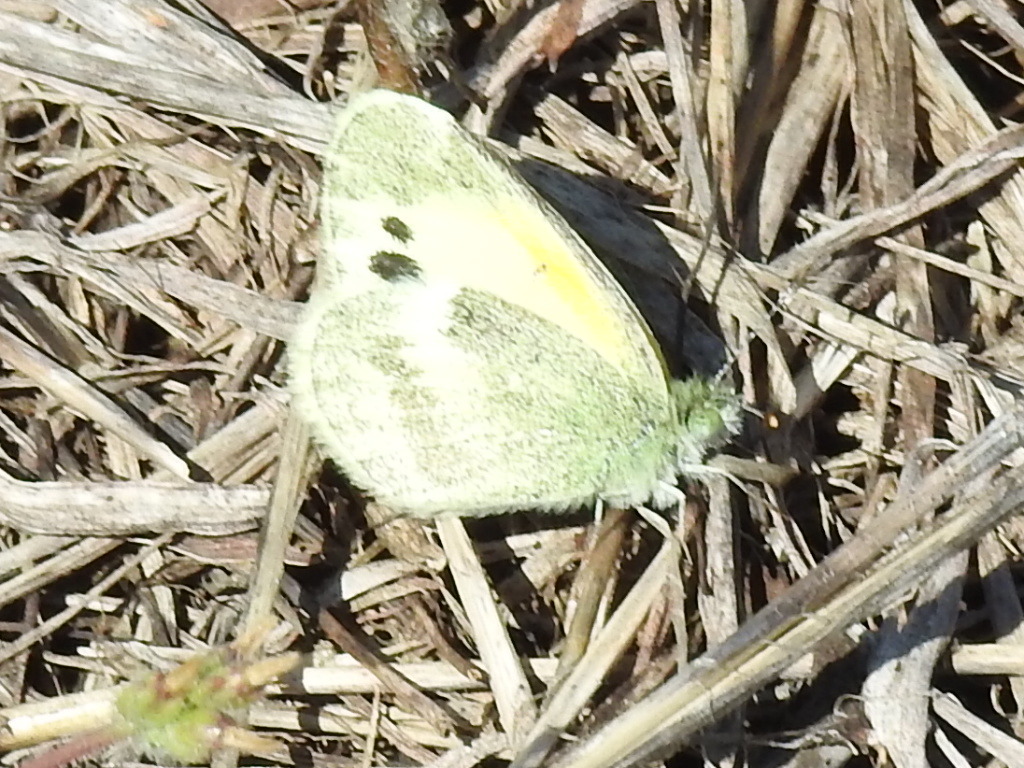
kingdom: Animalia
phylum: Arthropoda
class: Insecta
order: Lepidoptera
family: Pieridae
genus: Nathalis
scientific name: Nathalis iole
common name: Dainty sulphur
